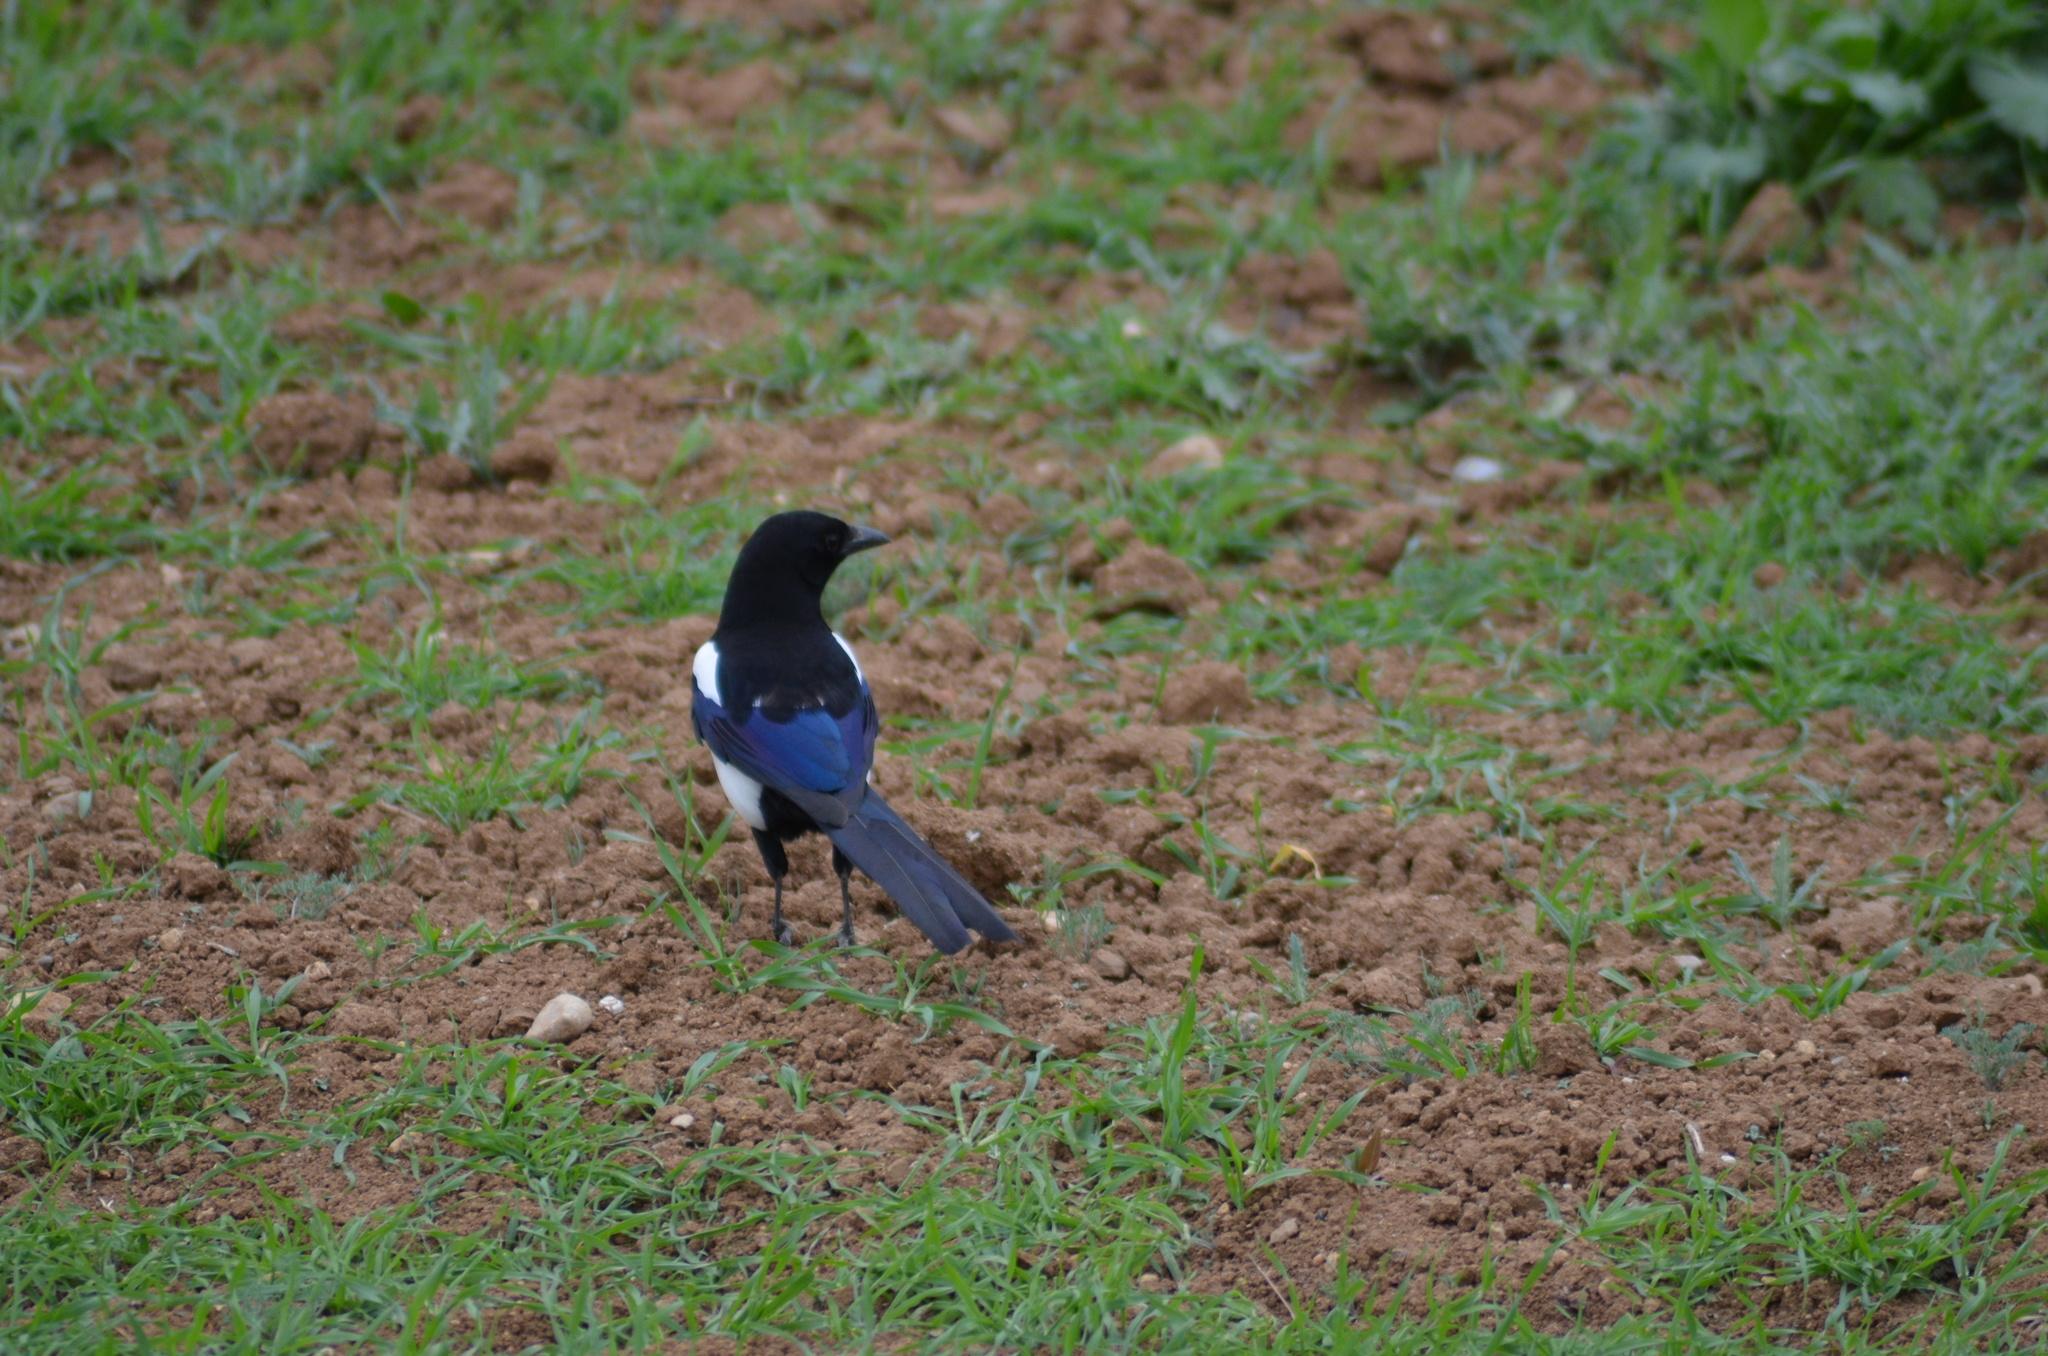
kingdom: Animalia
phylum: Chordata
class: Aves
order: Passeriformes
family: Corvidae
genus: Pica
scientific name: Pica pica
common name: Eurasian magpie
